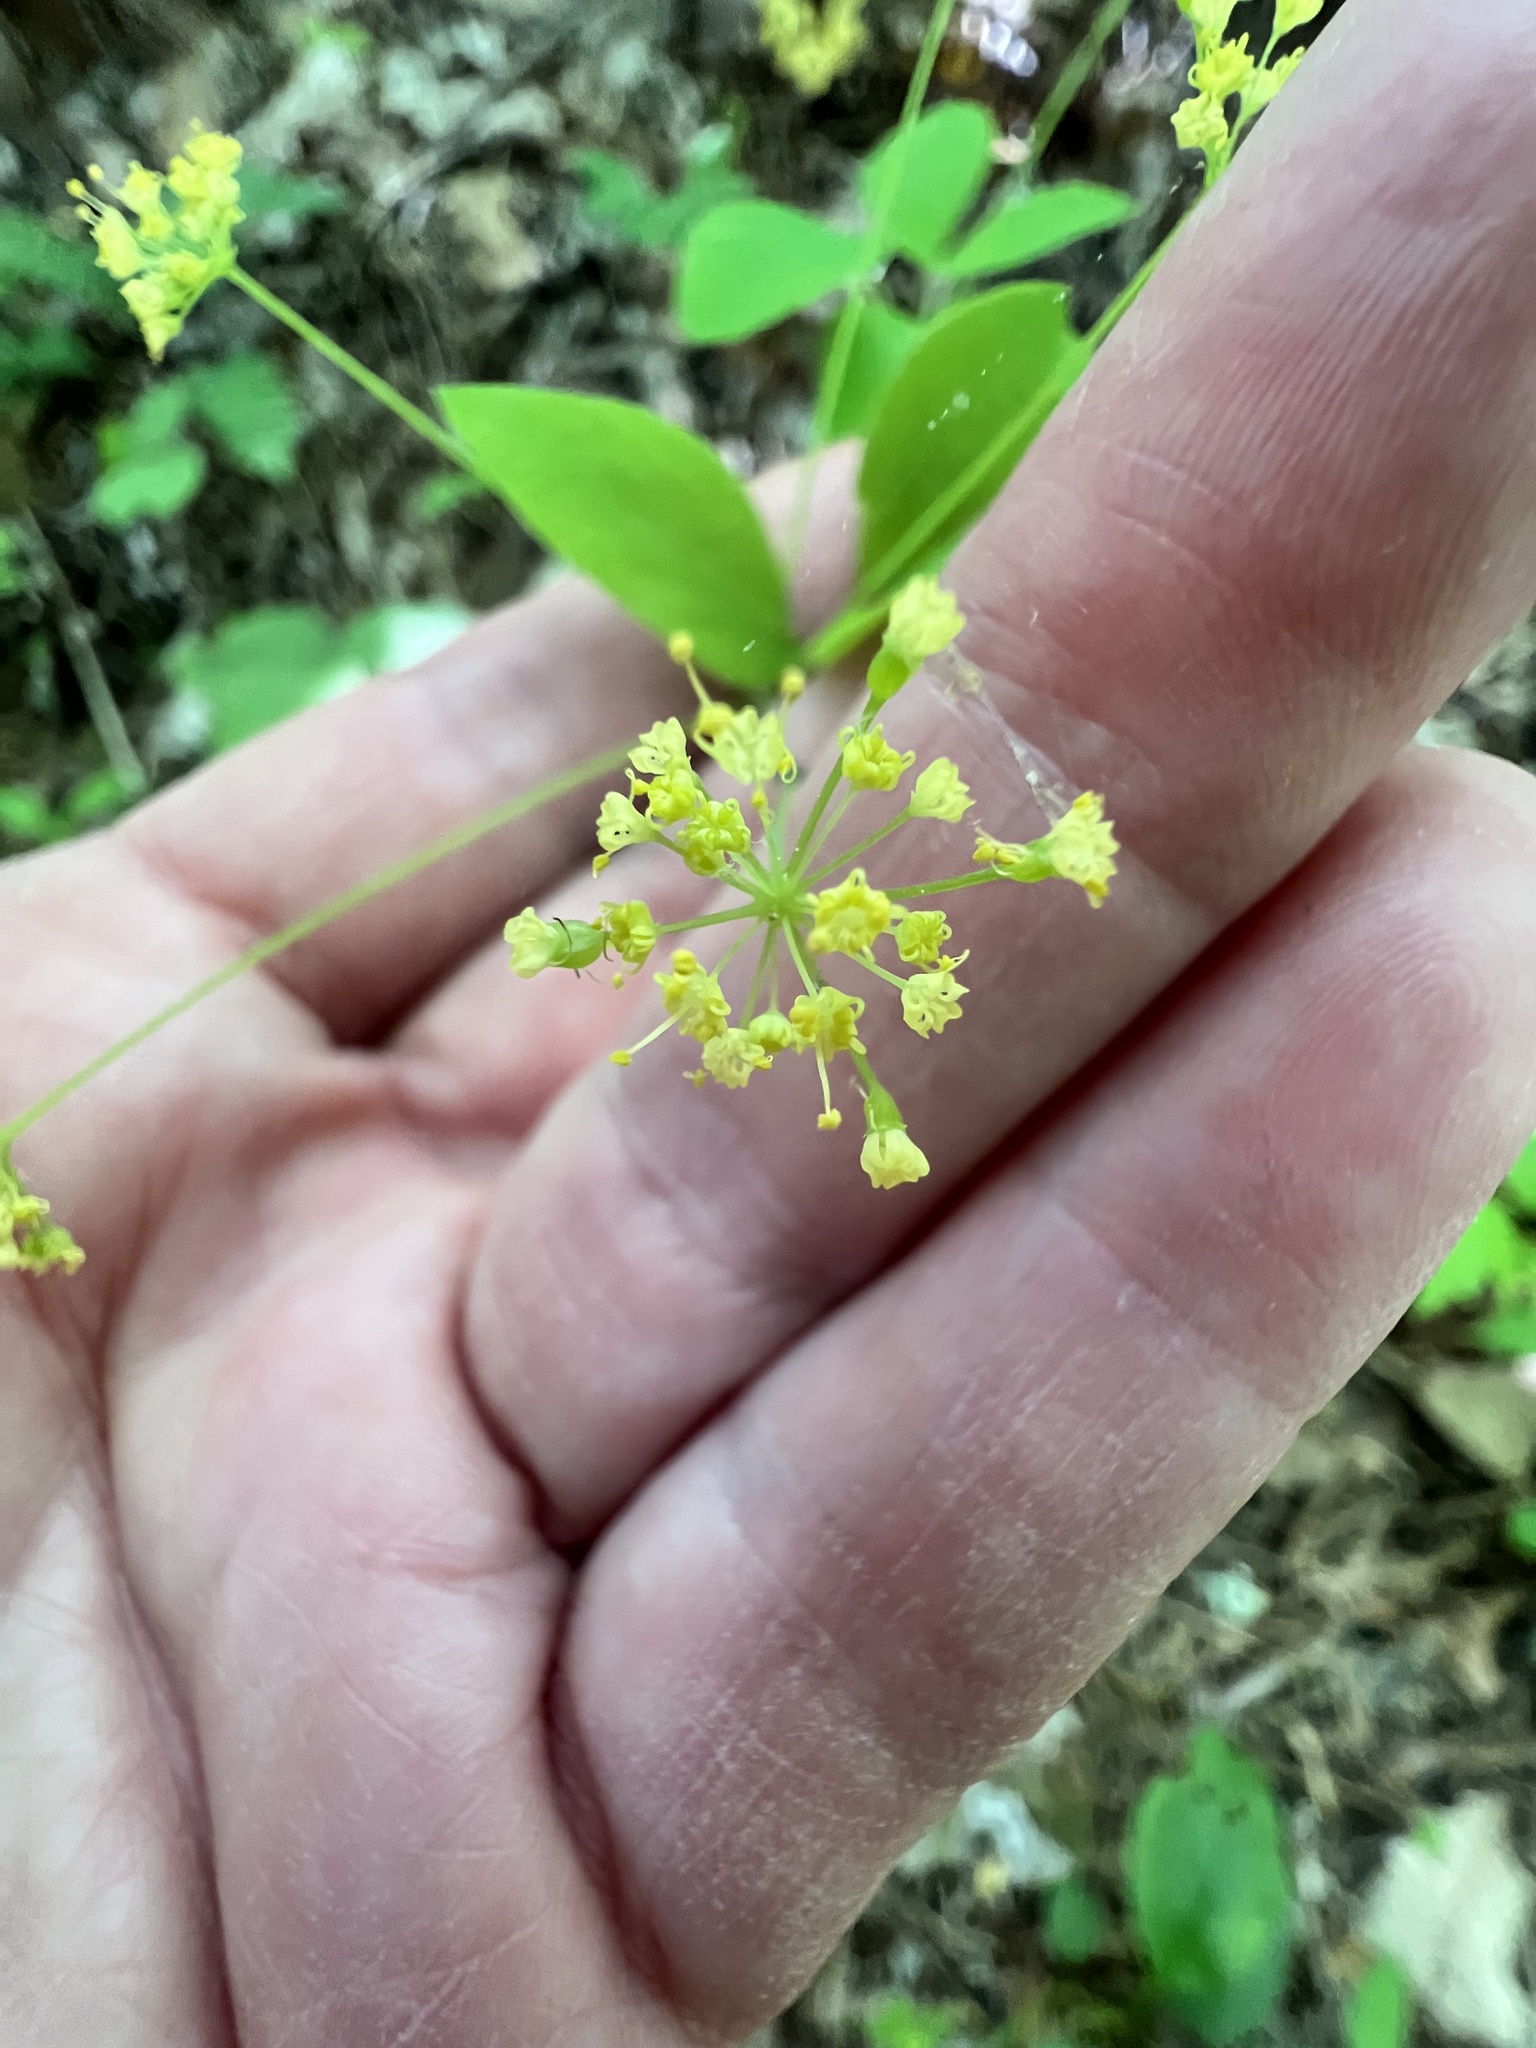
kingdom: Plantae
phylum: Tracheophyta
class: Magnoliopsida
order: Apiales
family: Apiaceae
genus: Taenidia
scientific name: Taenidia integerrima
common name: Golden alexander
